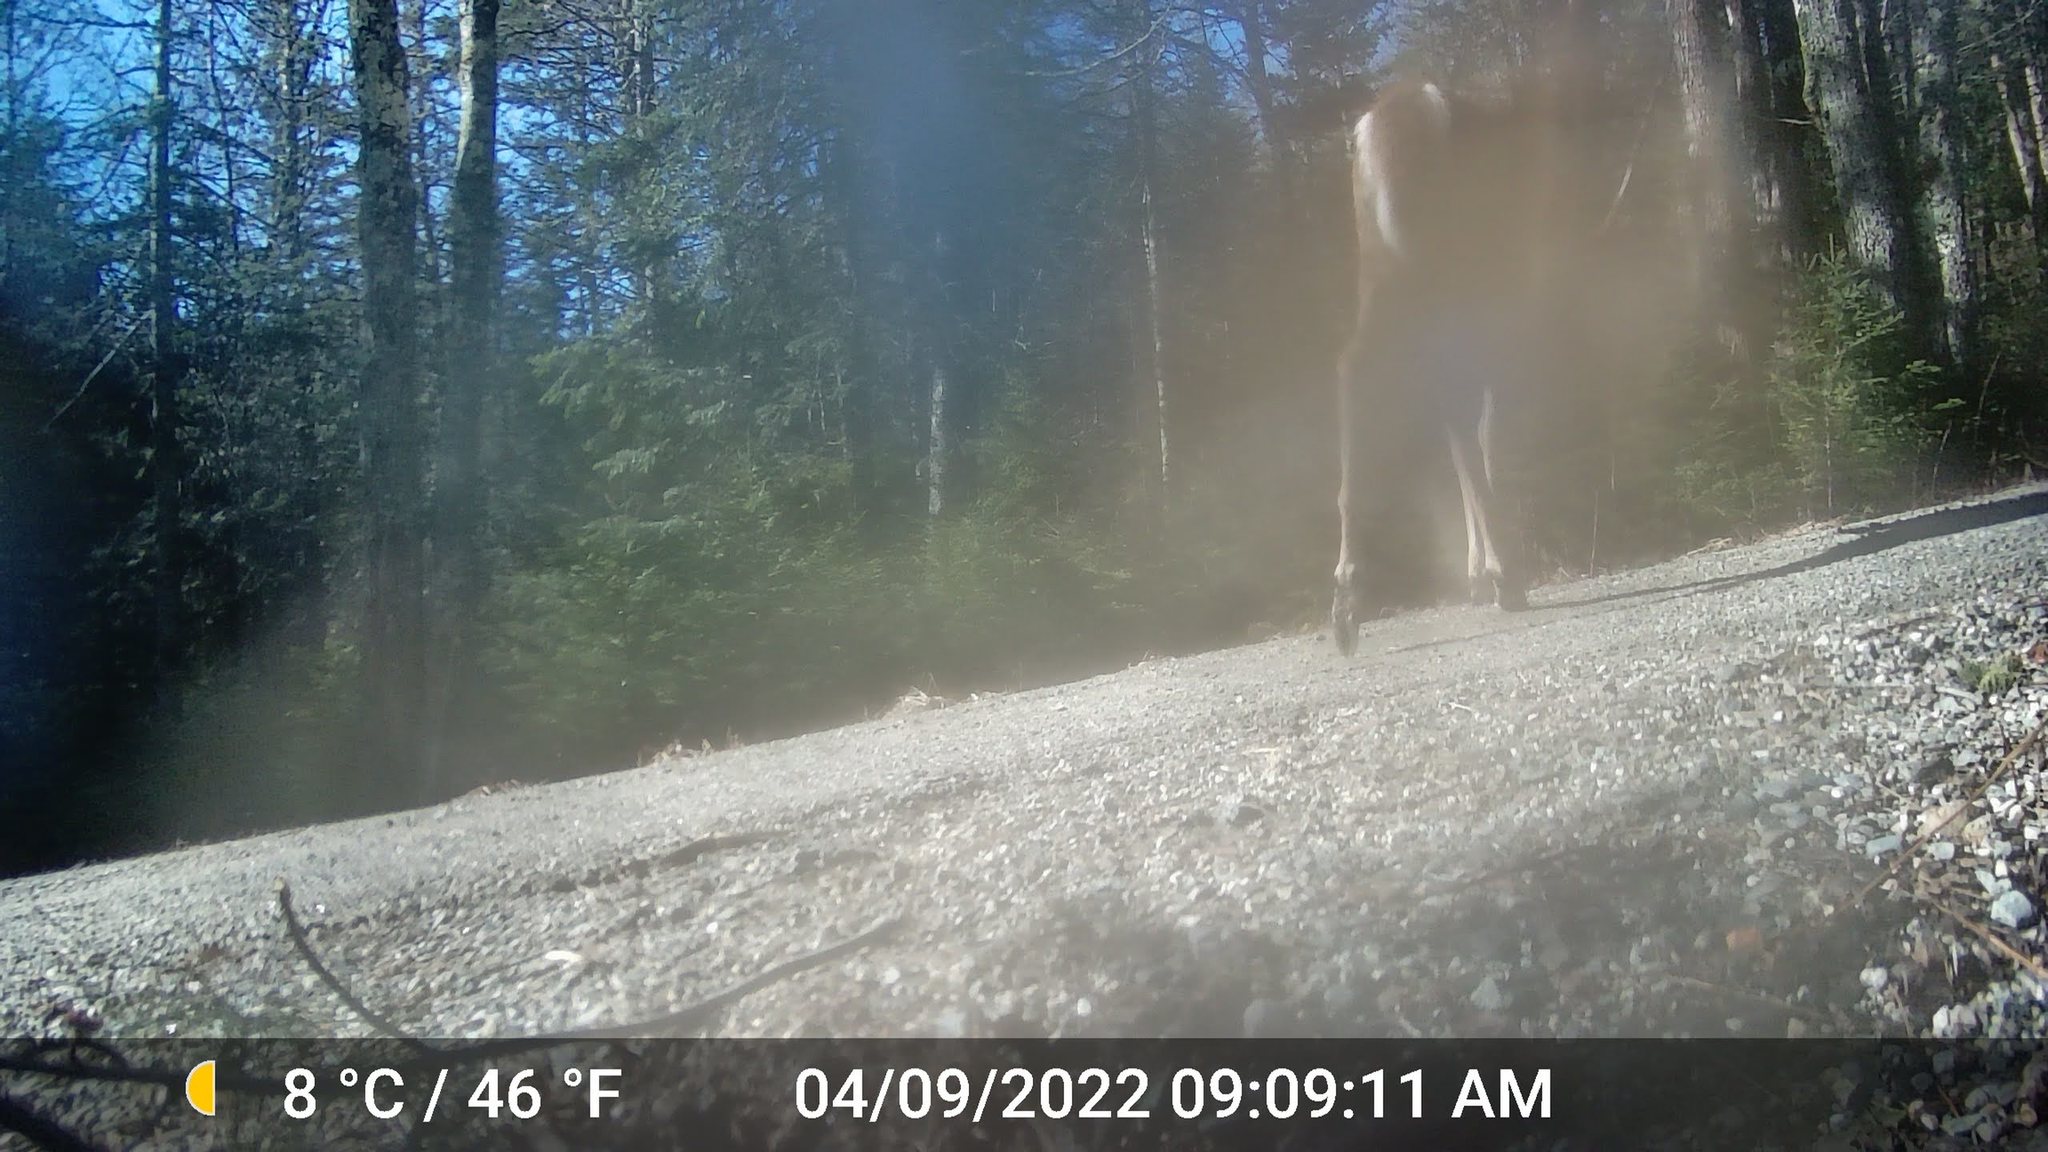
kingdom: Animalia
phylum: Chordata
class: Mammalia
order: Artiodactyla
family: Cervidae
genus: Odocoileus
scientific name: Odocoileus virginianus
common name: White-tailed deer
